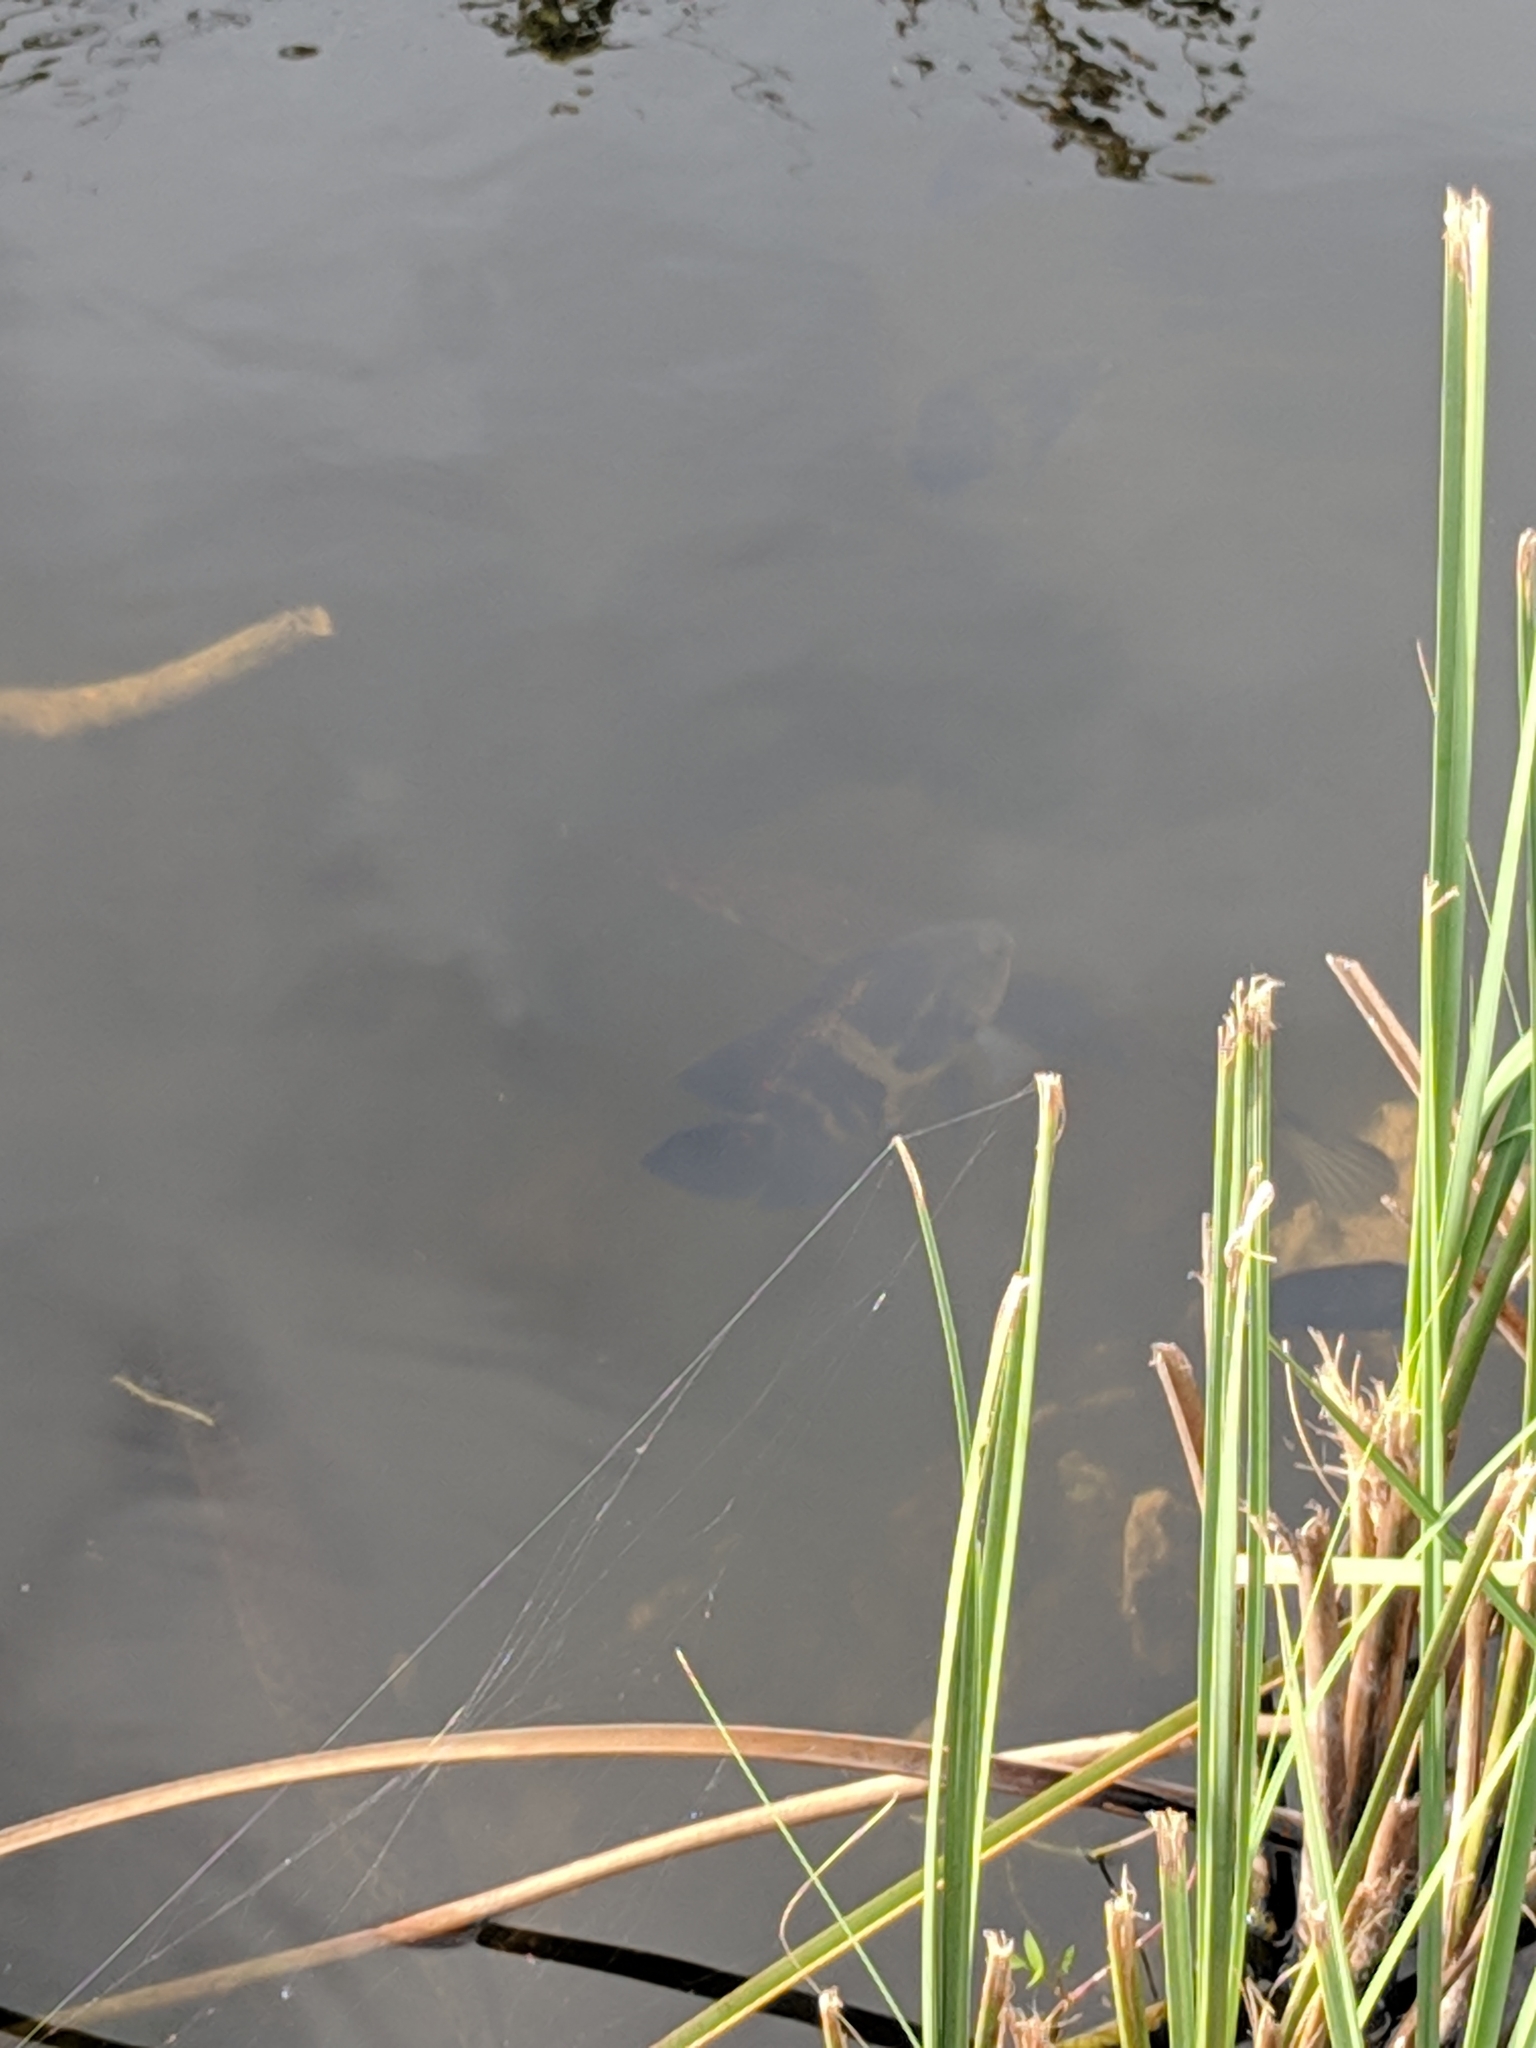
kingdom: Animalia
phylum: Chordata
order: Perciformes
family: Cichlidae
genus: Astronotus
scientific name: Astronotus ocellatus
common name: Oscar
